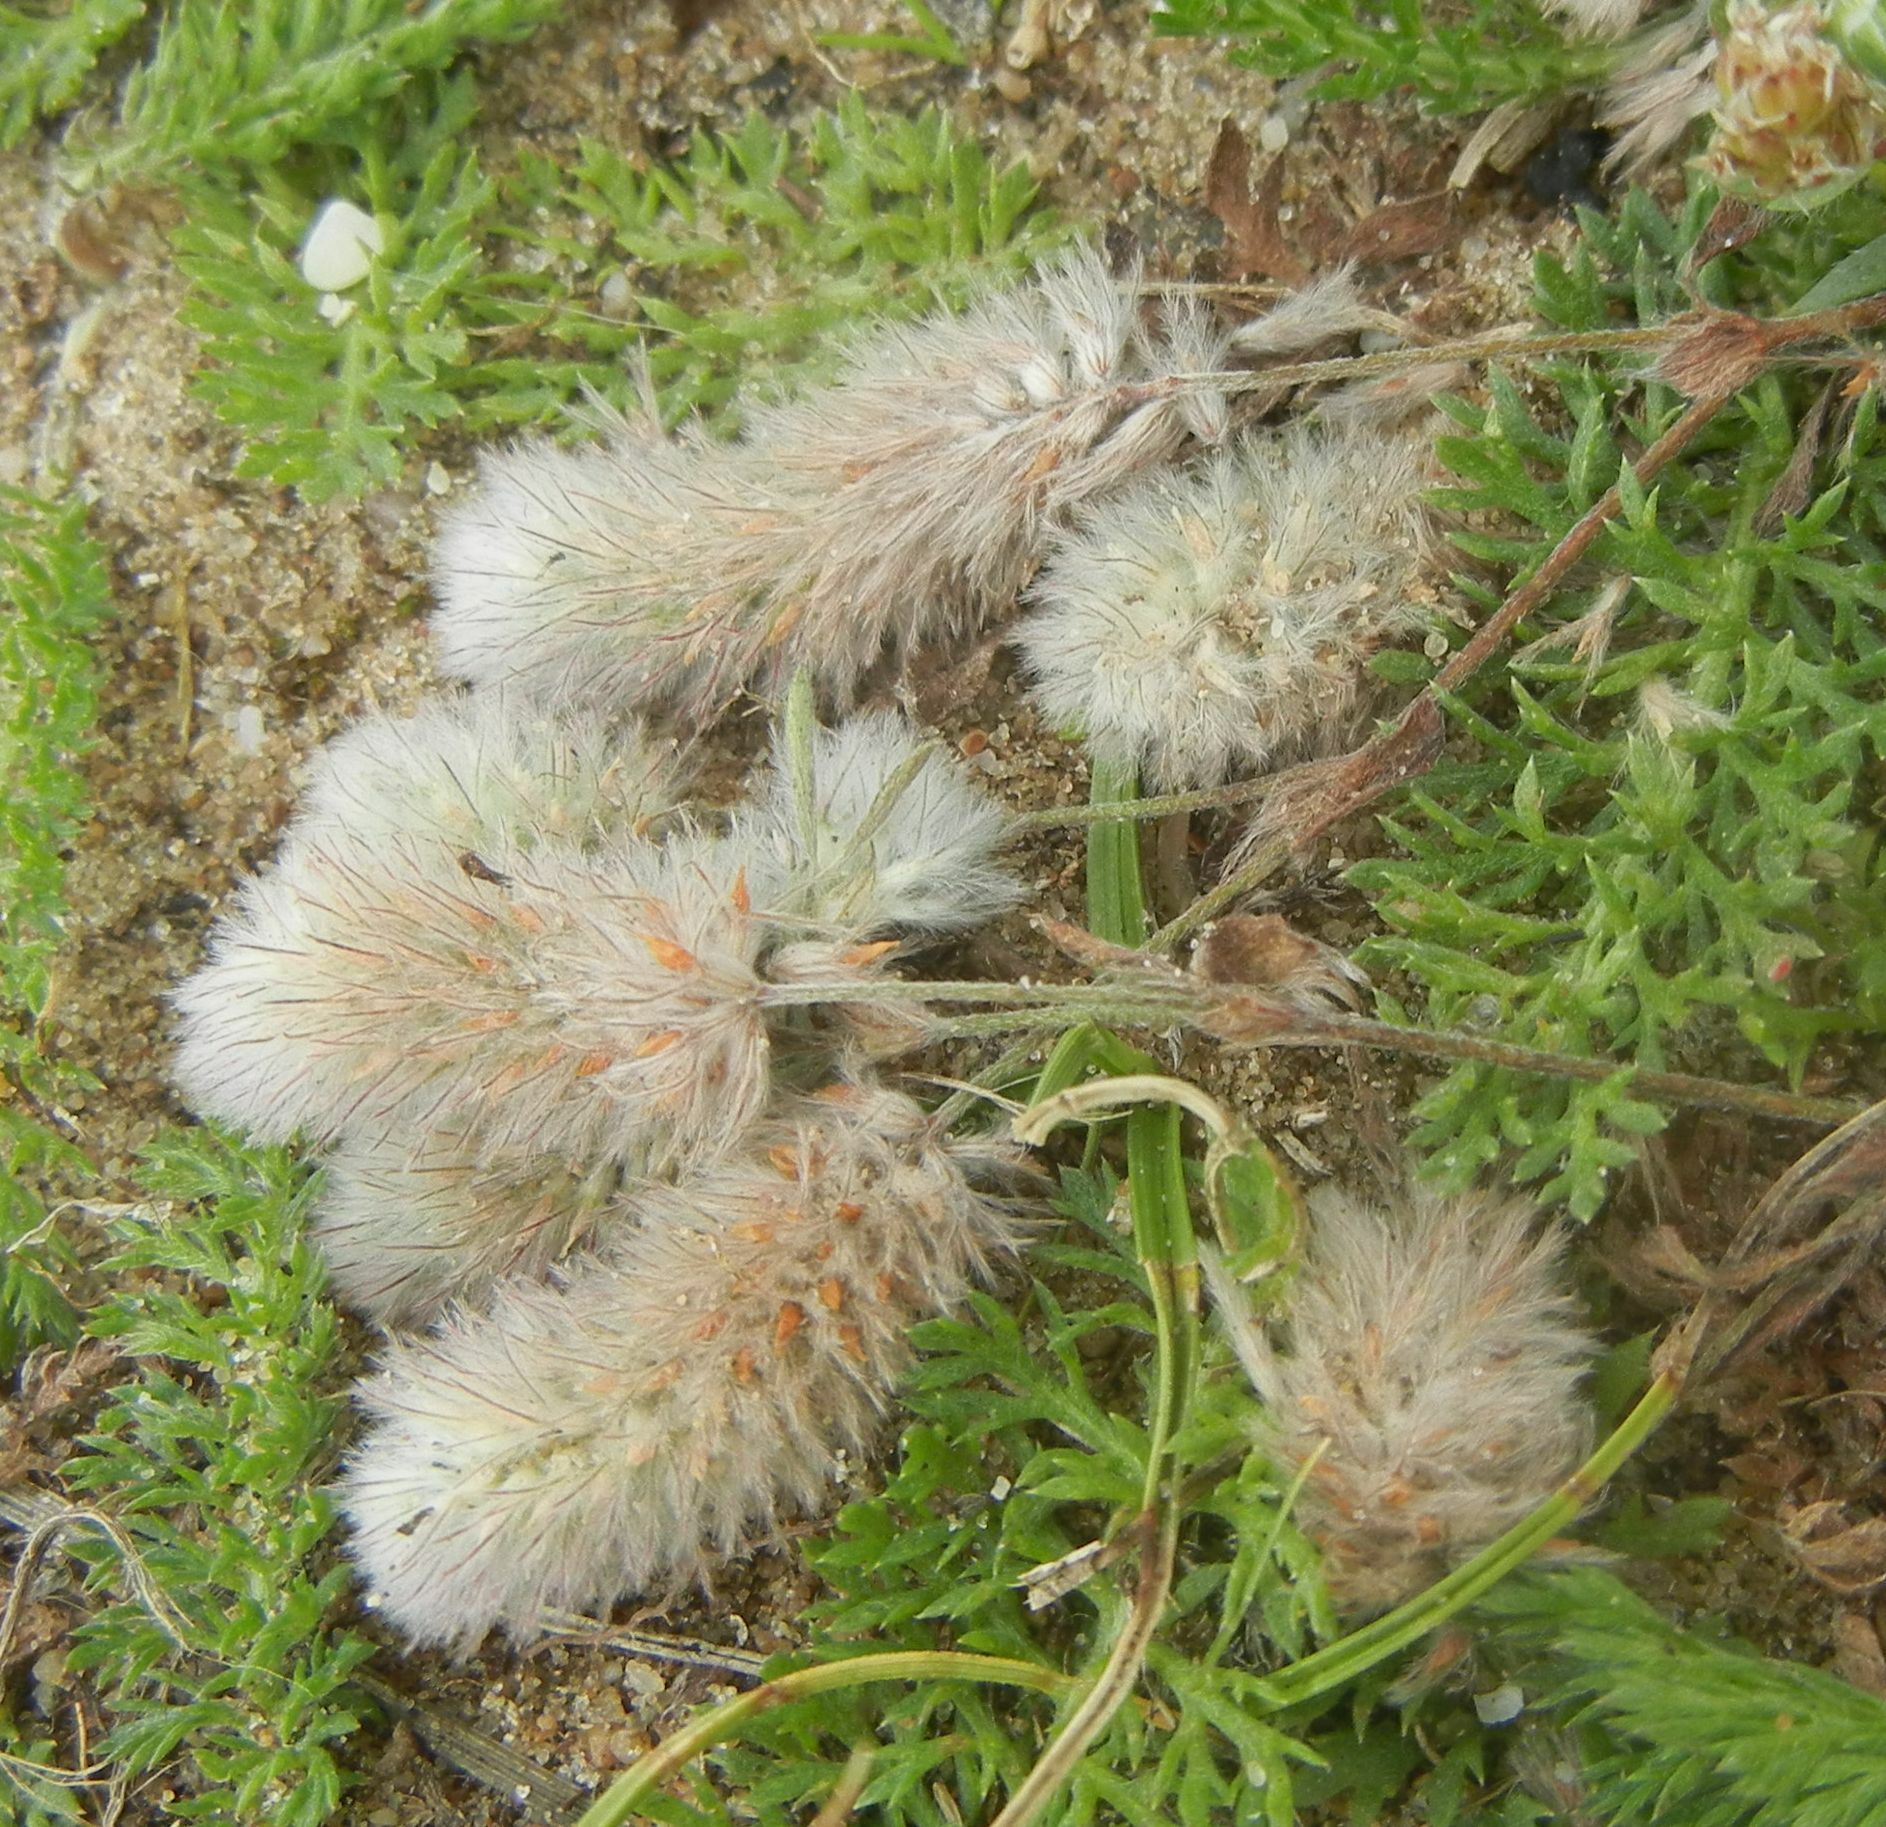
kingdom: Plantae
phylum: Tracheophyta
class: Magnoliopsida
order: Fabales
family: Fabaceae
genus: Trifolium
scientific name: Trifolium arvense
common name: Hare's-foot clover
